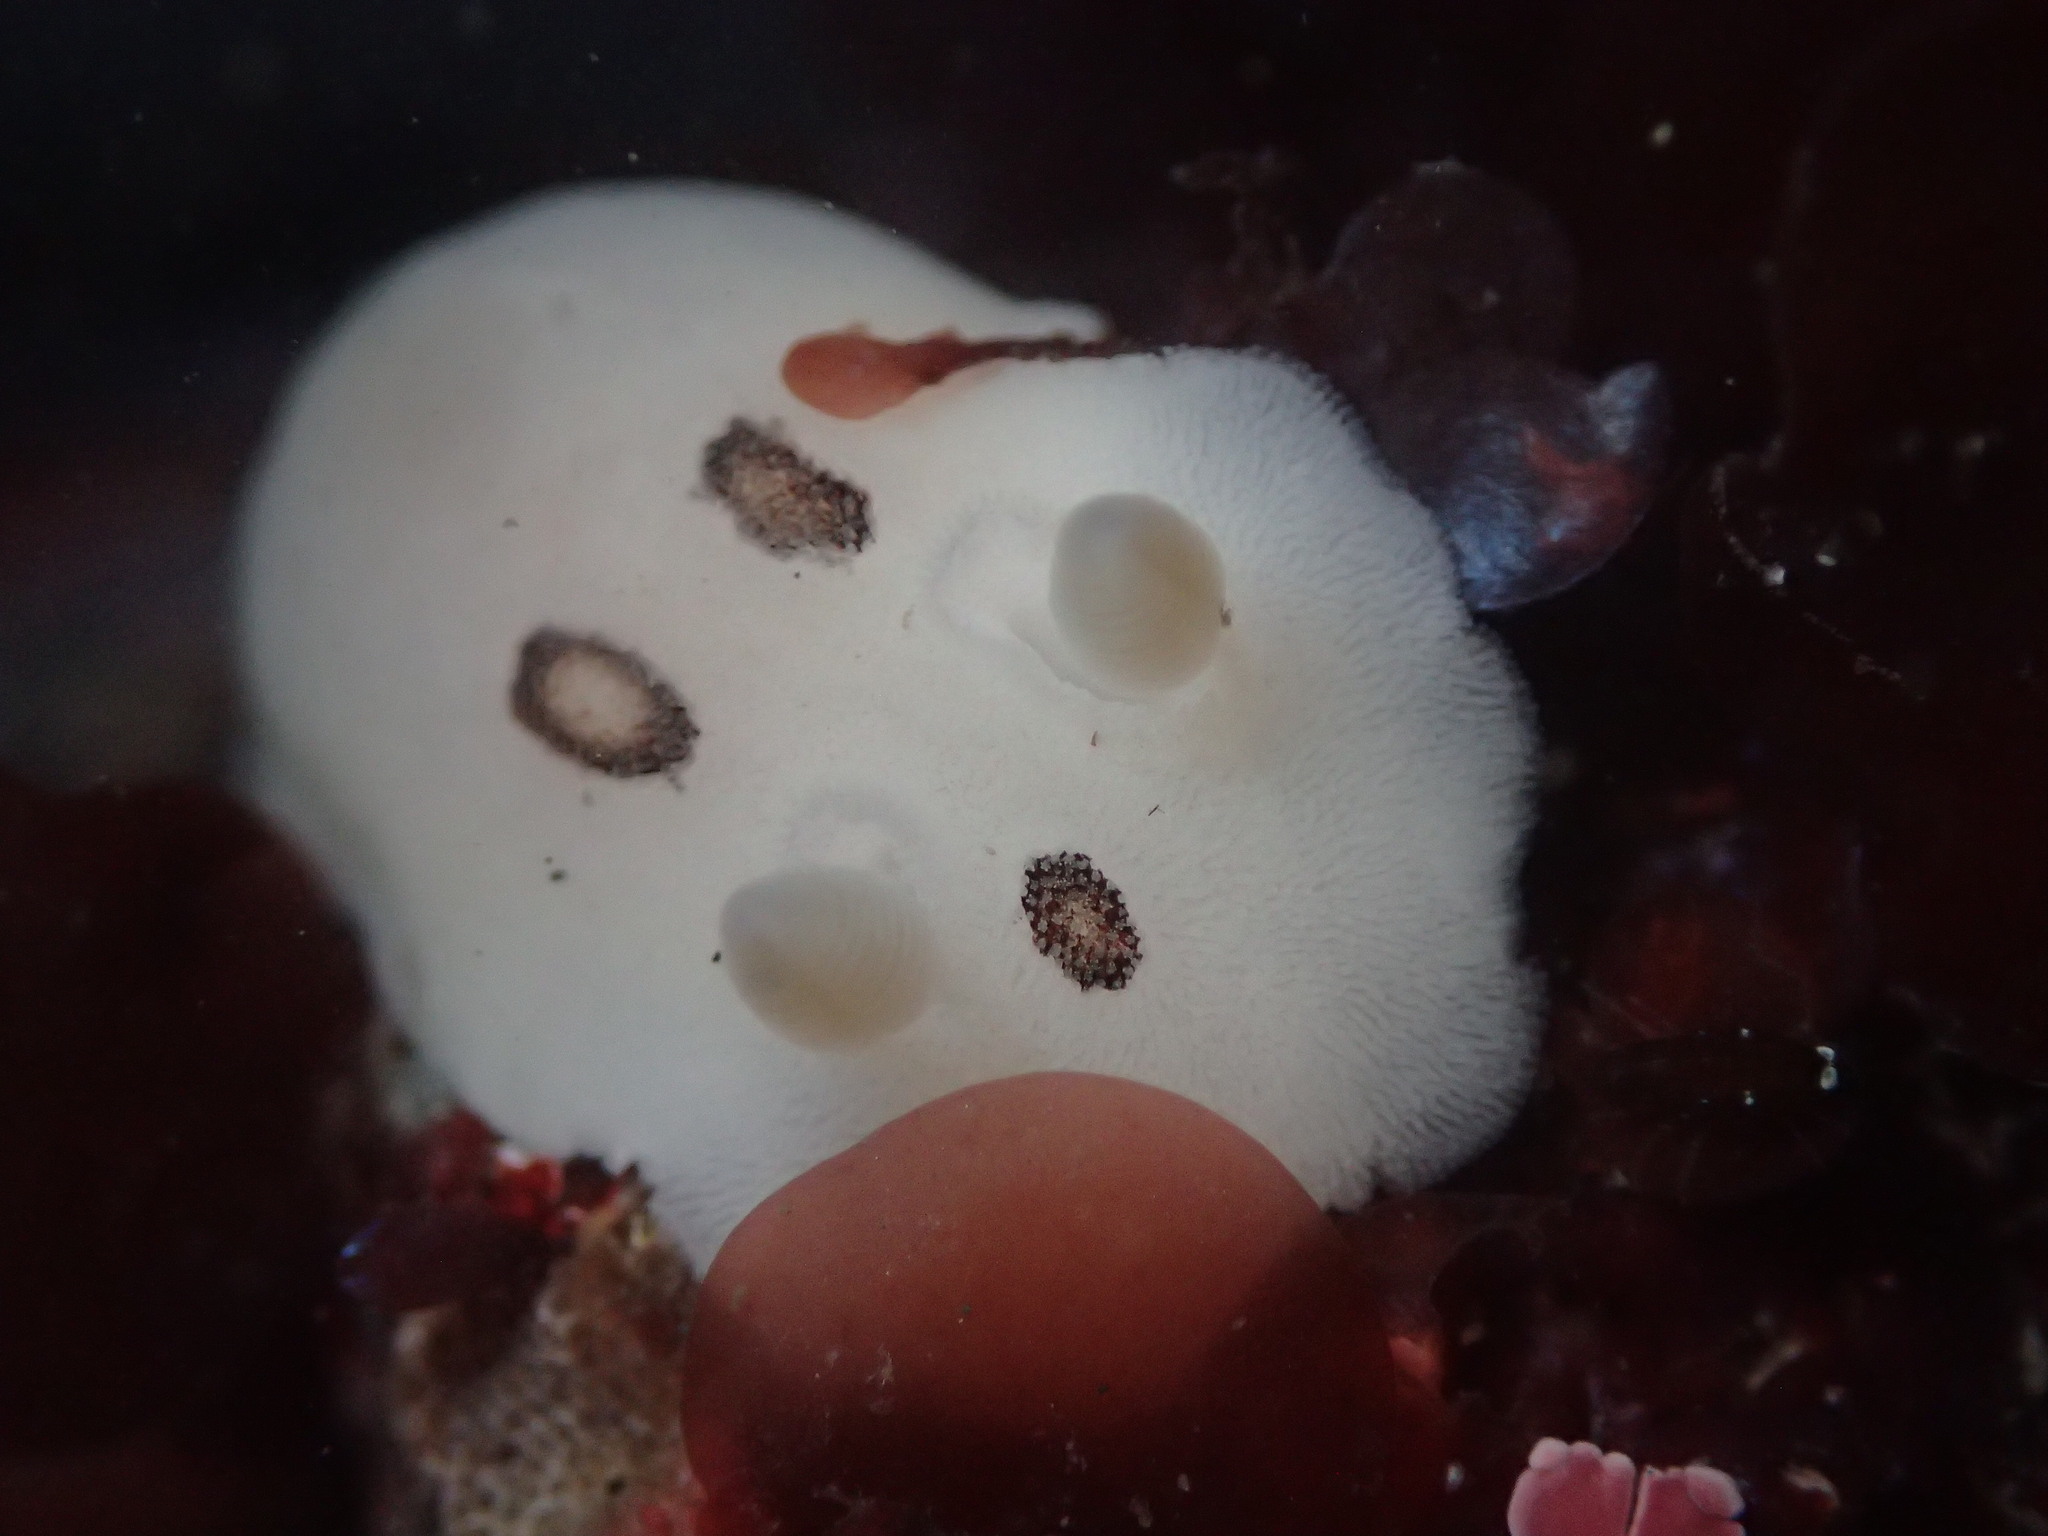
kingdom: Animalia
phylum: Mollusca
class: Gastropoda
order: Nudibranchia
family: Discodorididae
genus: Diaulula
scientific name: Diaulula sandiegensis
